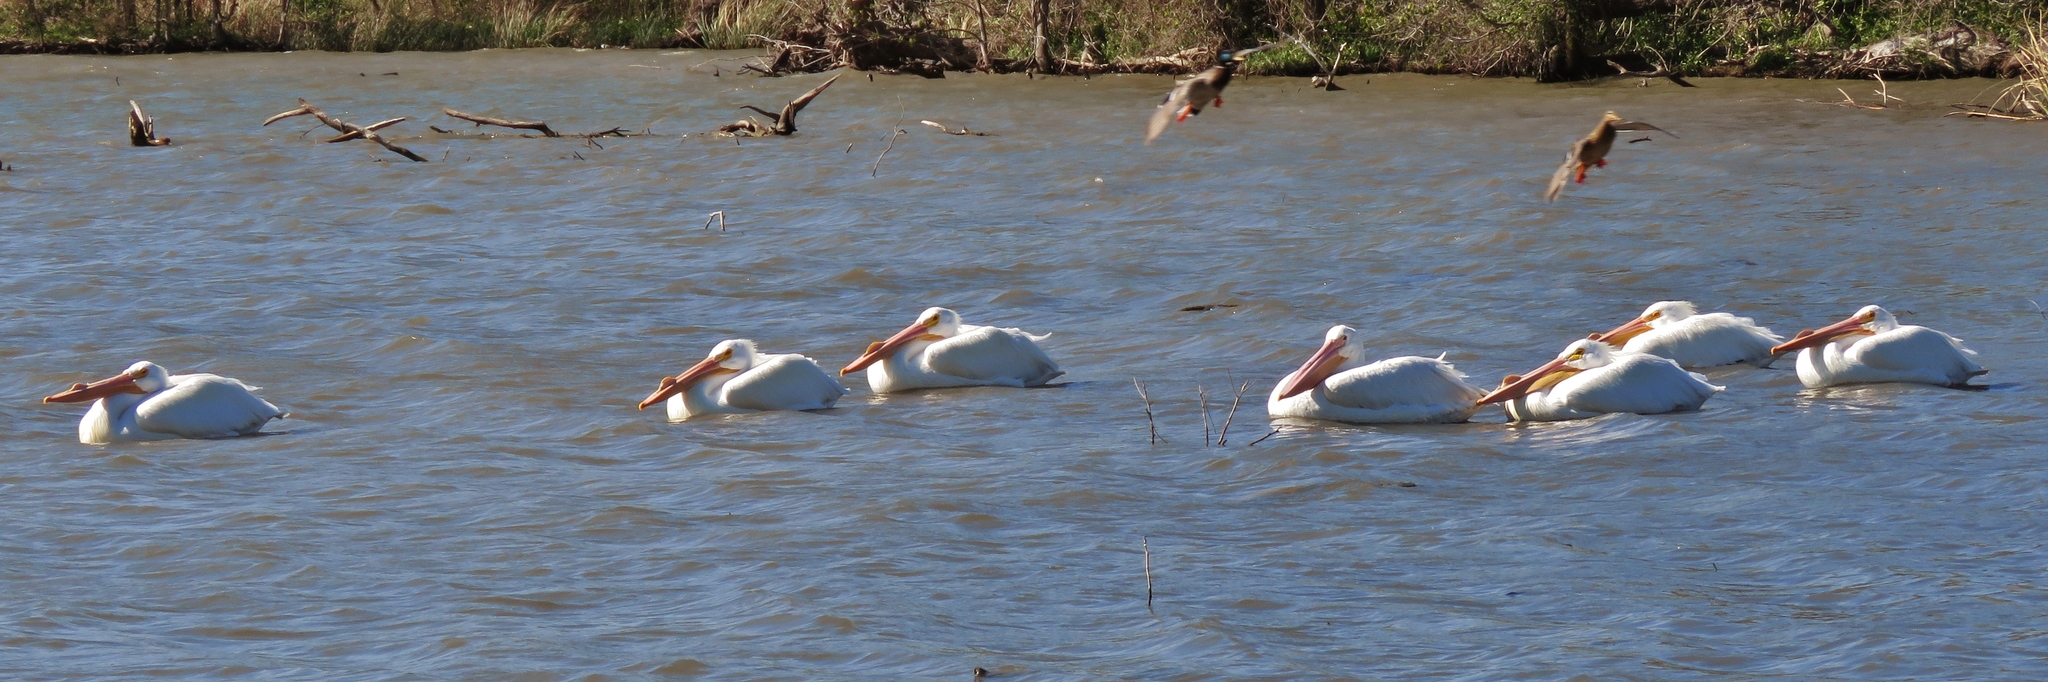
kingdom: Animalia
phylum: Chordata
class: Aves
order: Pelecaniformes
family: Pelecanidae
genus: Pelecanus
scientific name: Pelecanus erythrorhynchos
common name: American white pelican
